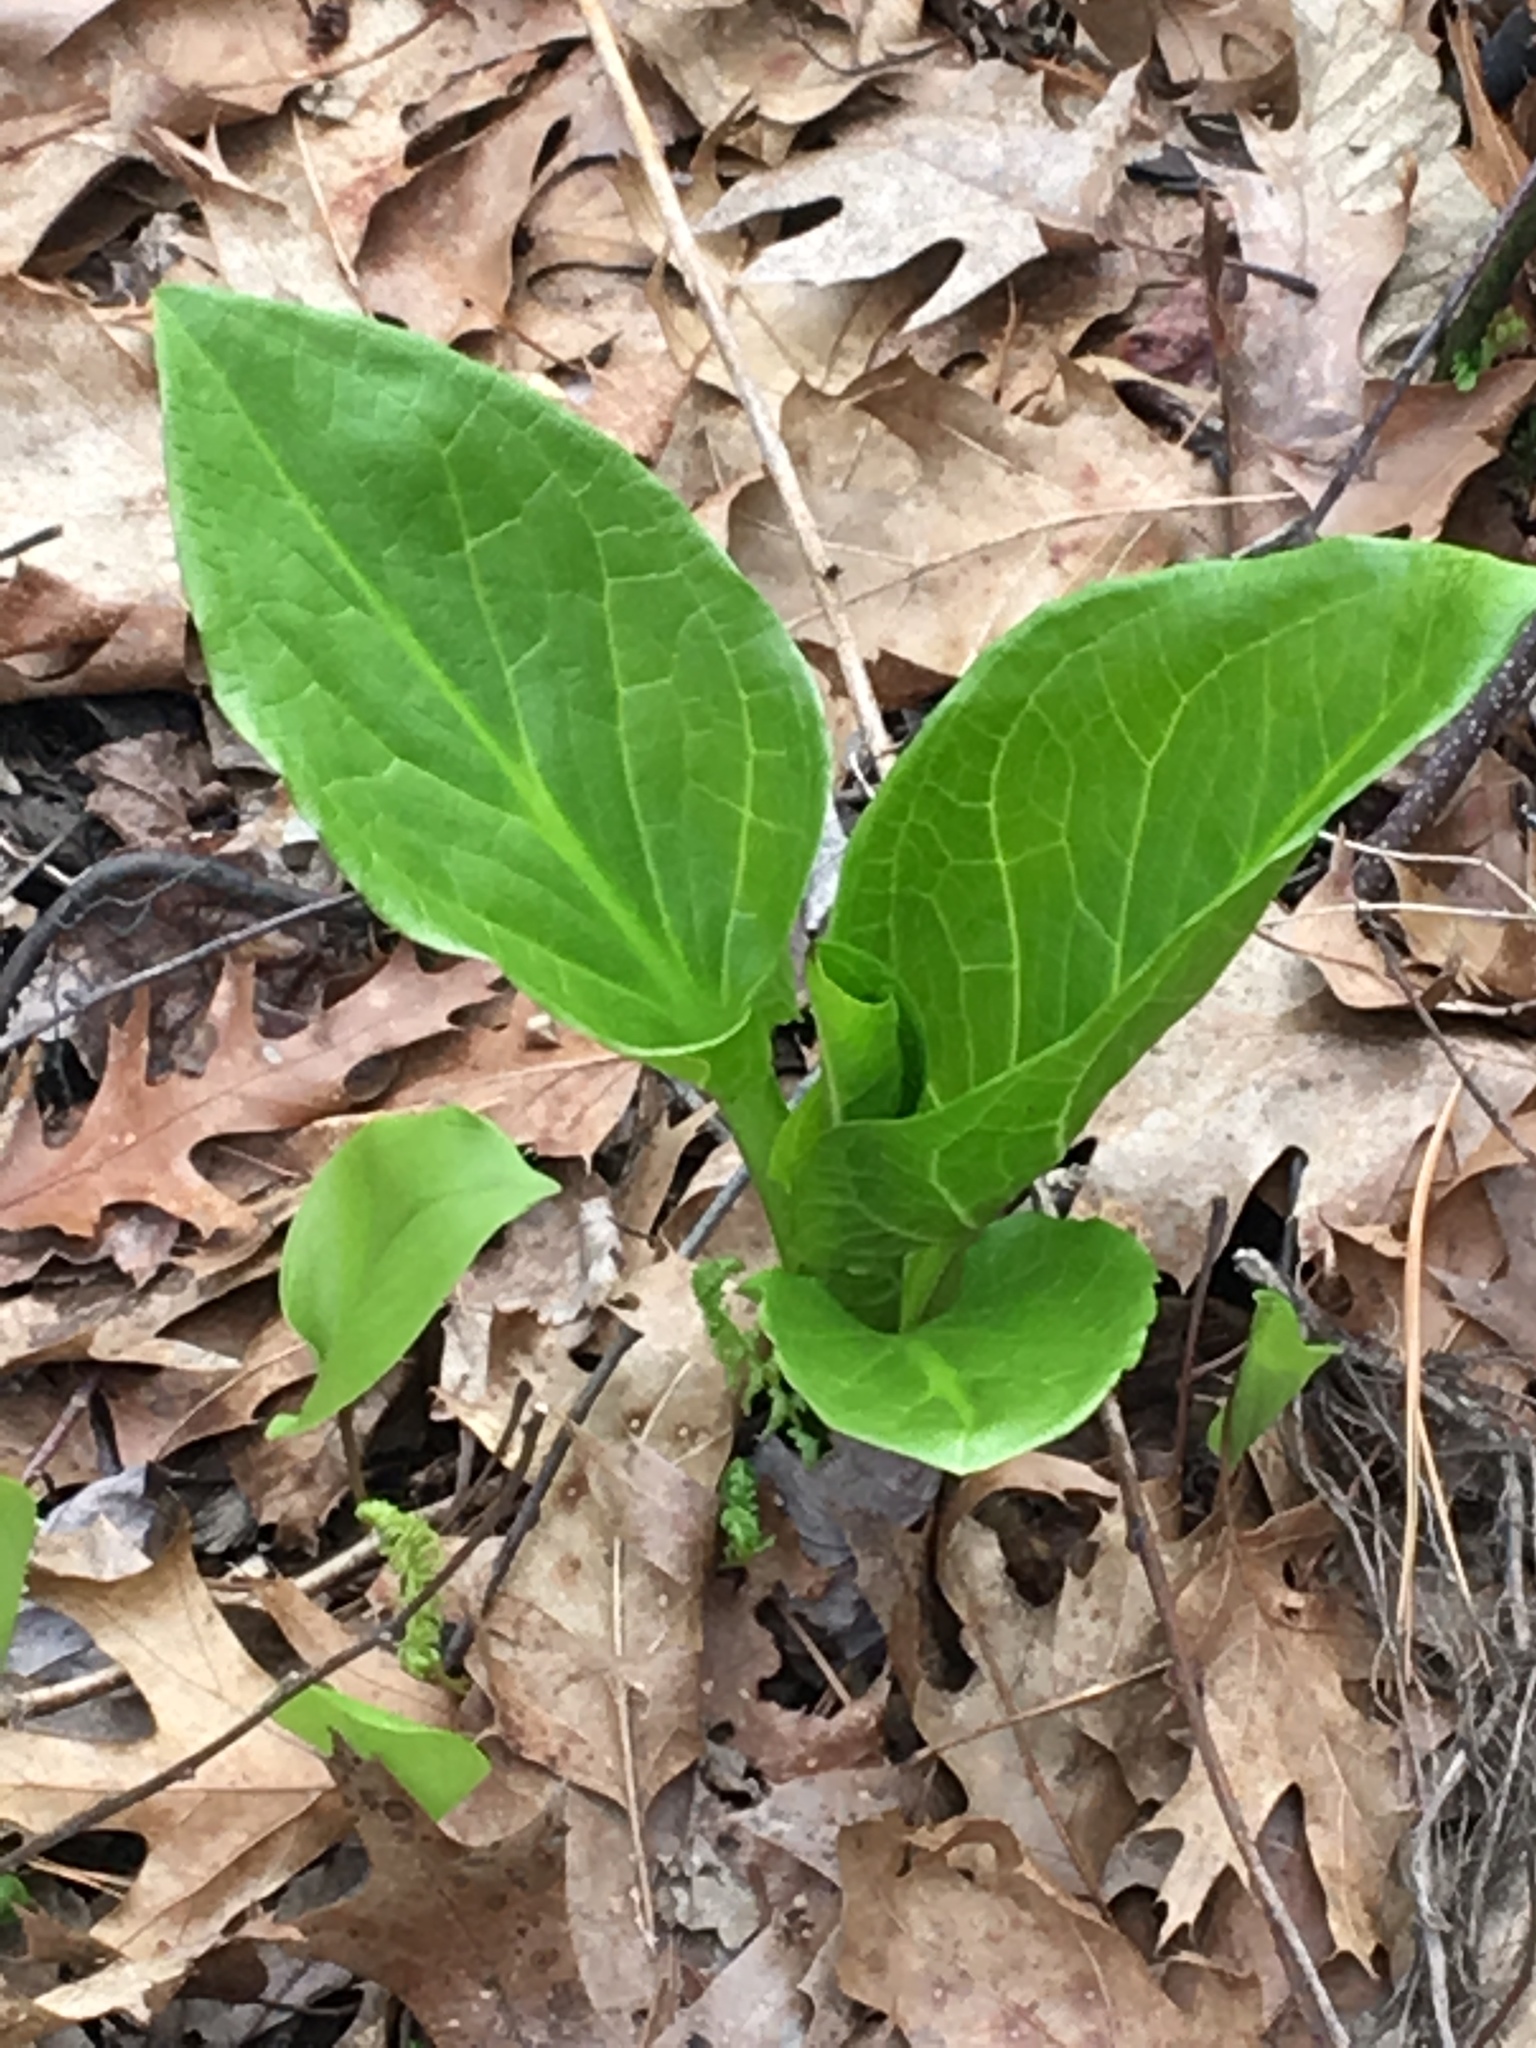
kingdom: Plantae
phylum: Tracheophyta
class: Liliopsida
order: Alismatales
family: Araceae
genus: Symplocarpus
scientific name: Symplocarpus foetidus
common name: Eastern skunk cabbage
